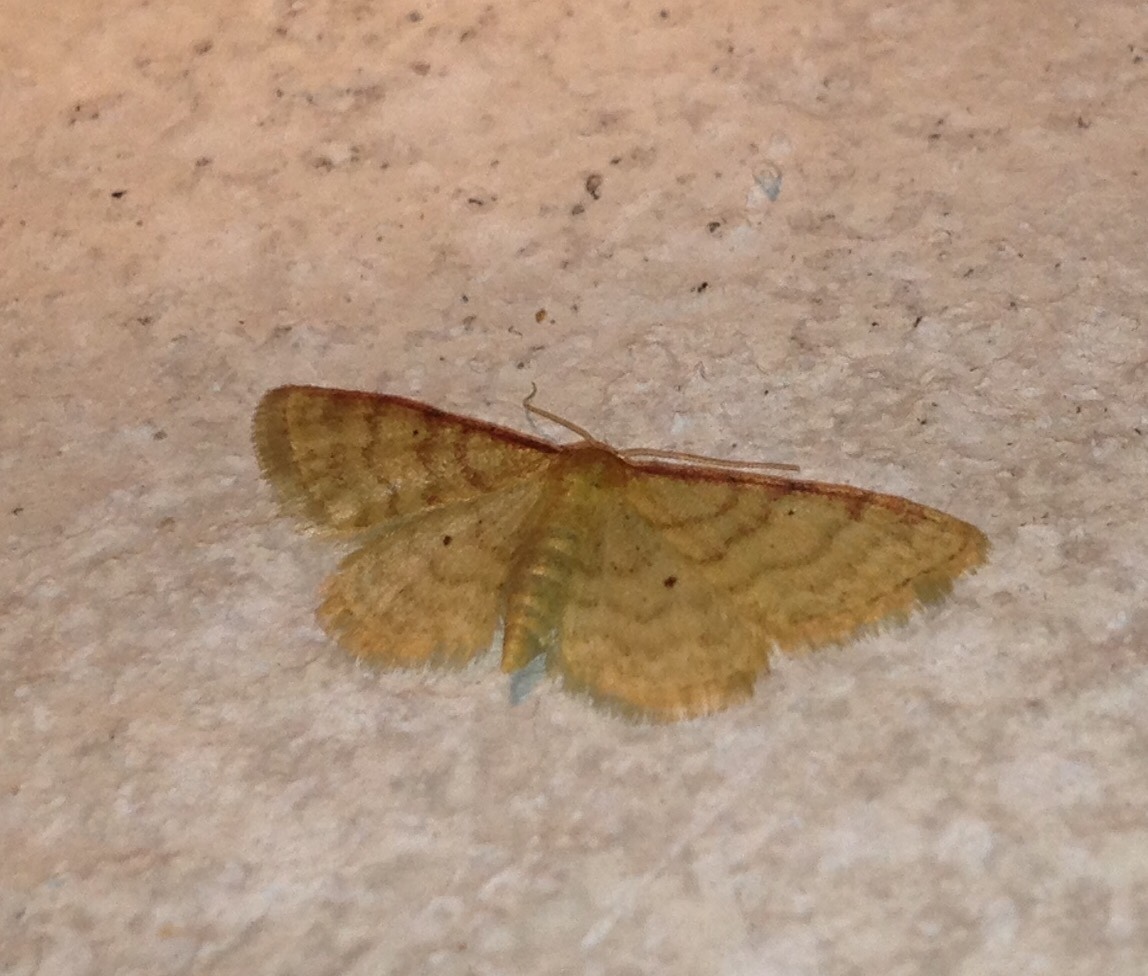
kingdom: Animalia
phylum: Arthropoda
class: Insecta
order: Lepidoptera
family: Geometridae
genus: Idaea
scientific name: Idaea humiliata
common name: Isle of wight wave
